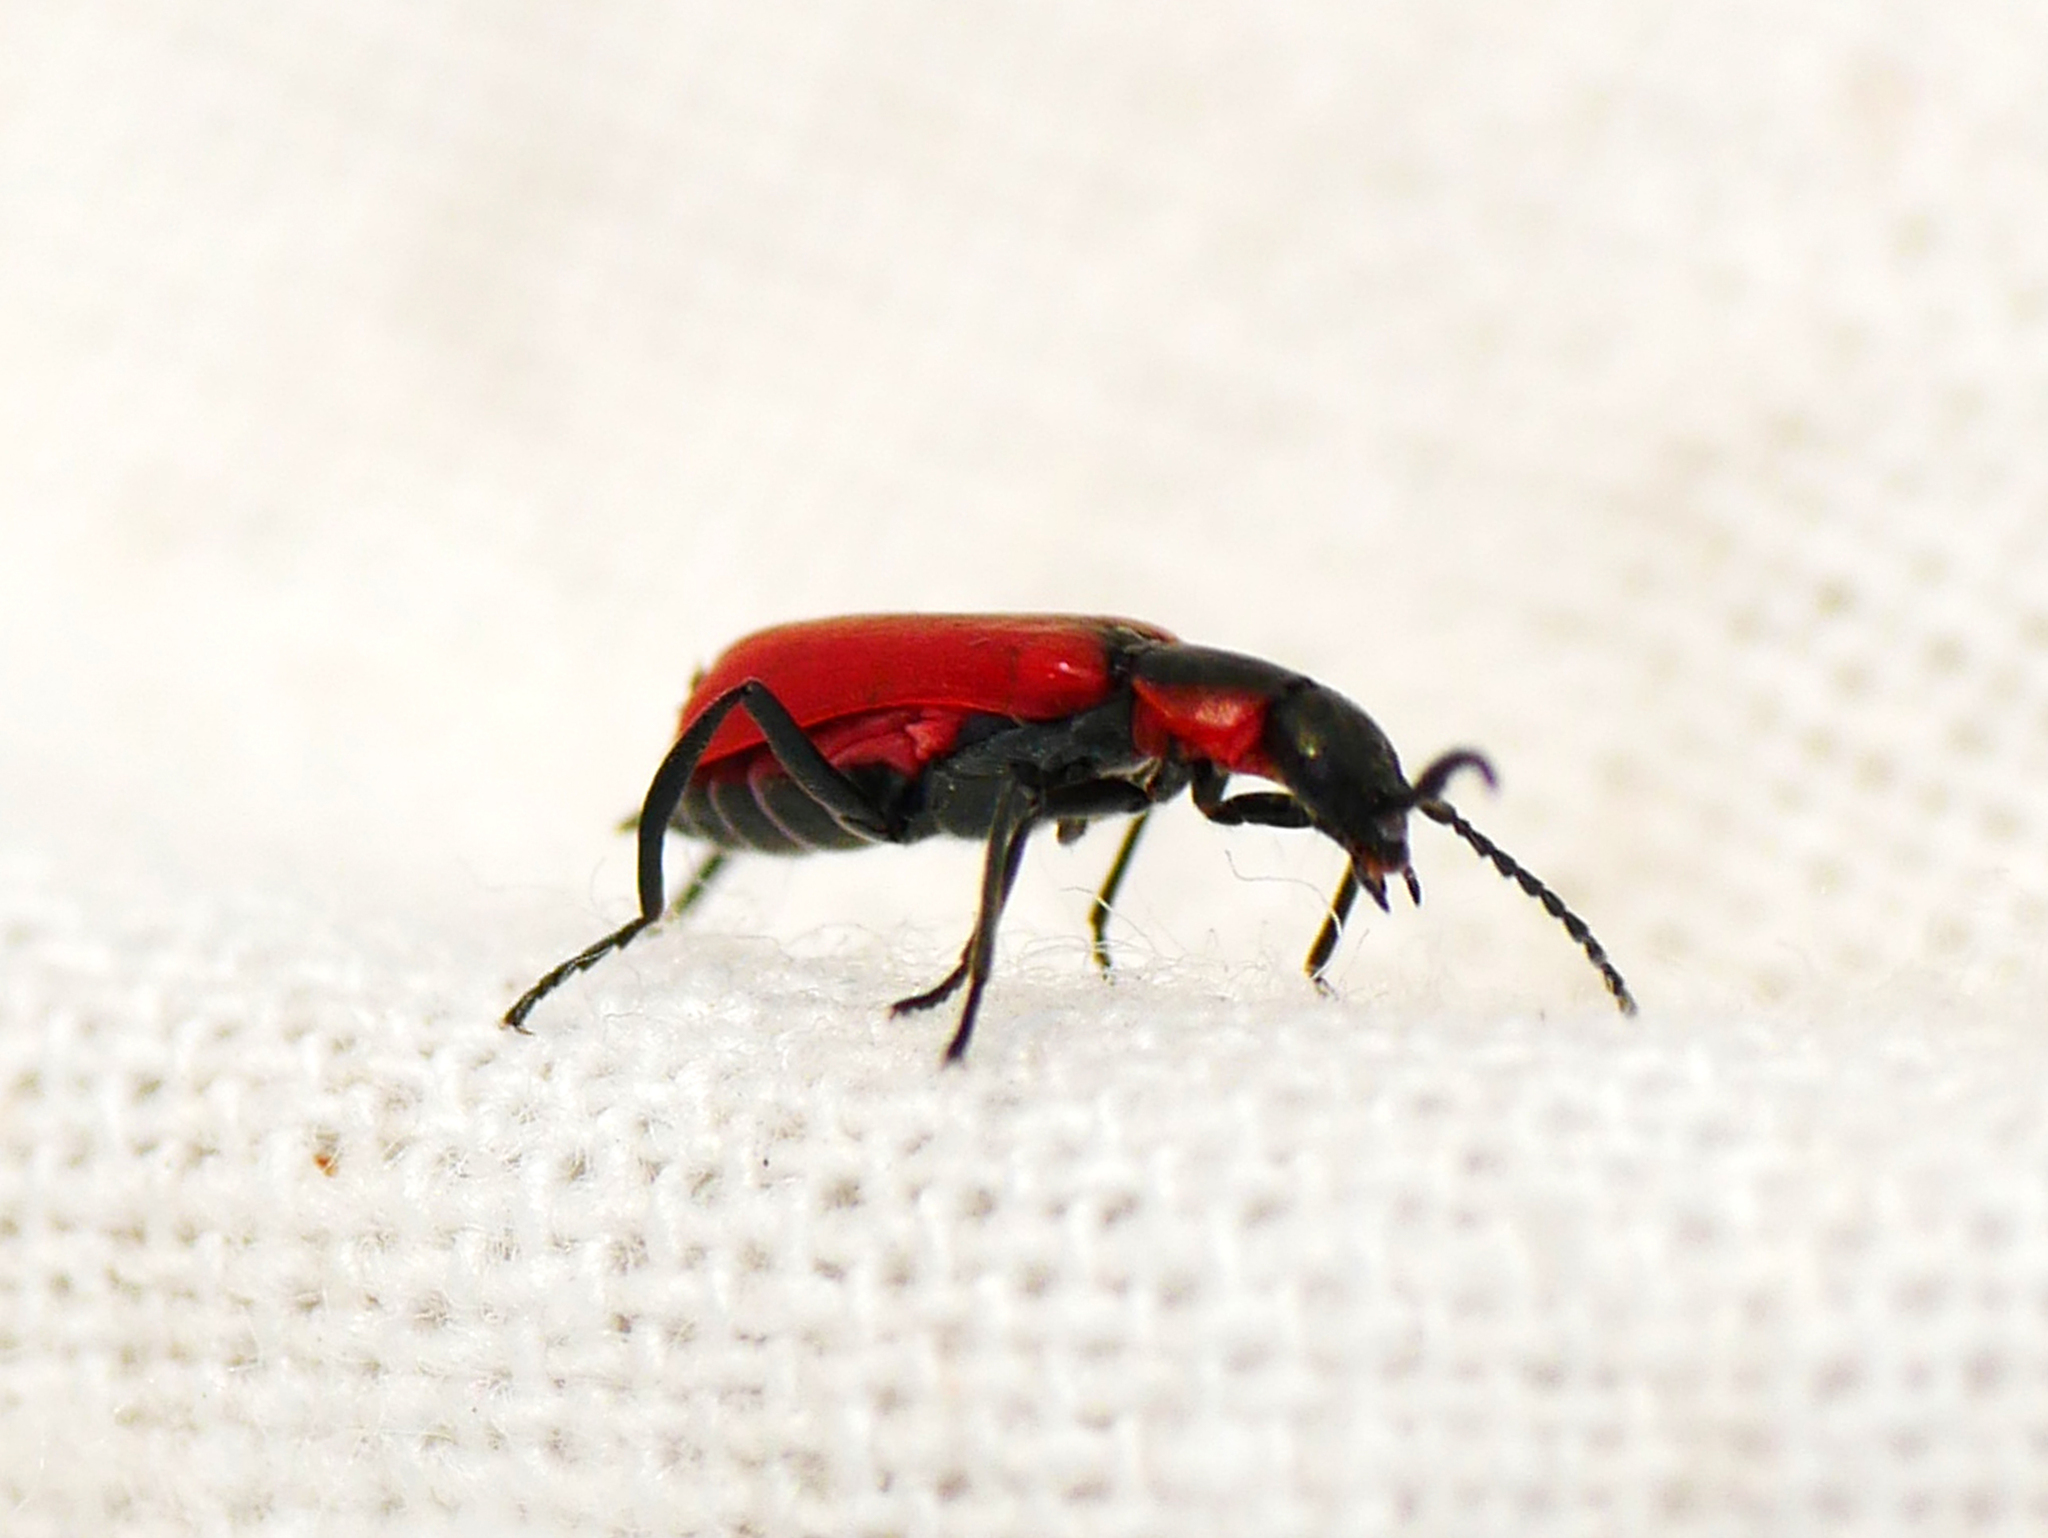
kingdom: Animalia
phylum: Arthropoda
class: Insecta
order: Coleoptera
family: Melyridae
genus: Anthocomus
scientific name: Anthocomus rufus
